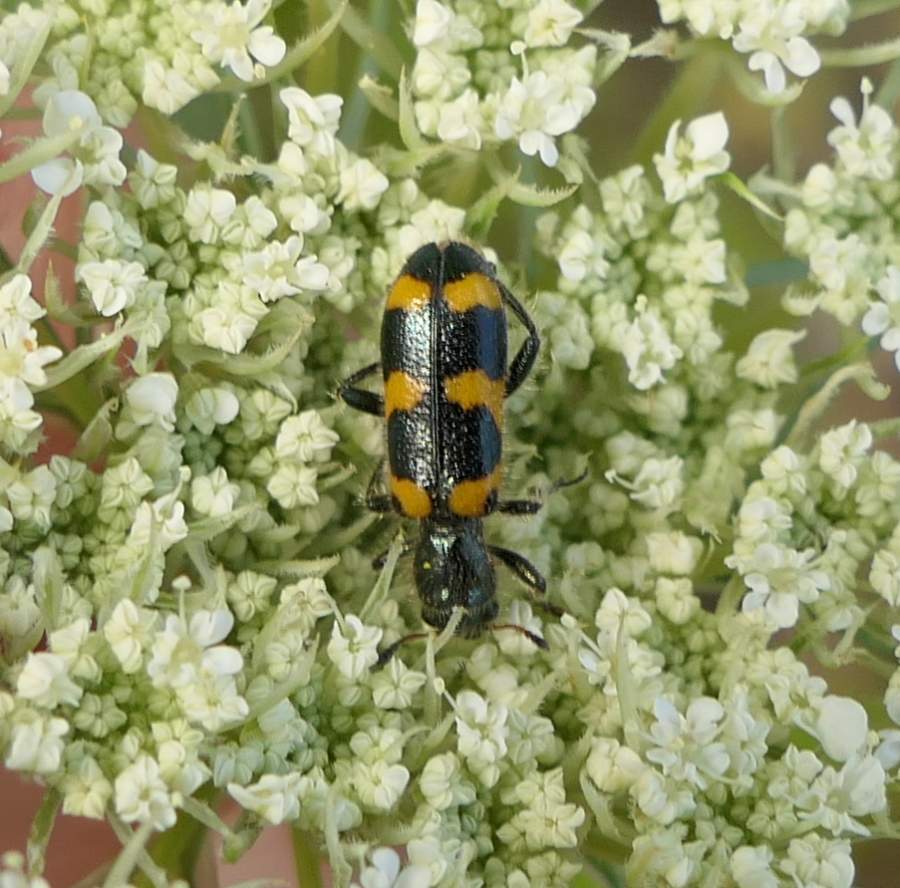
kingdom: Animalia
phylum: Arthropoda
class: Insecta
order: Coleoptera
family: Cleridae
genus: Trichodes
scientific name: Trichodes nutalli
